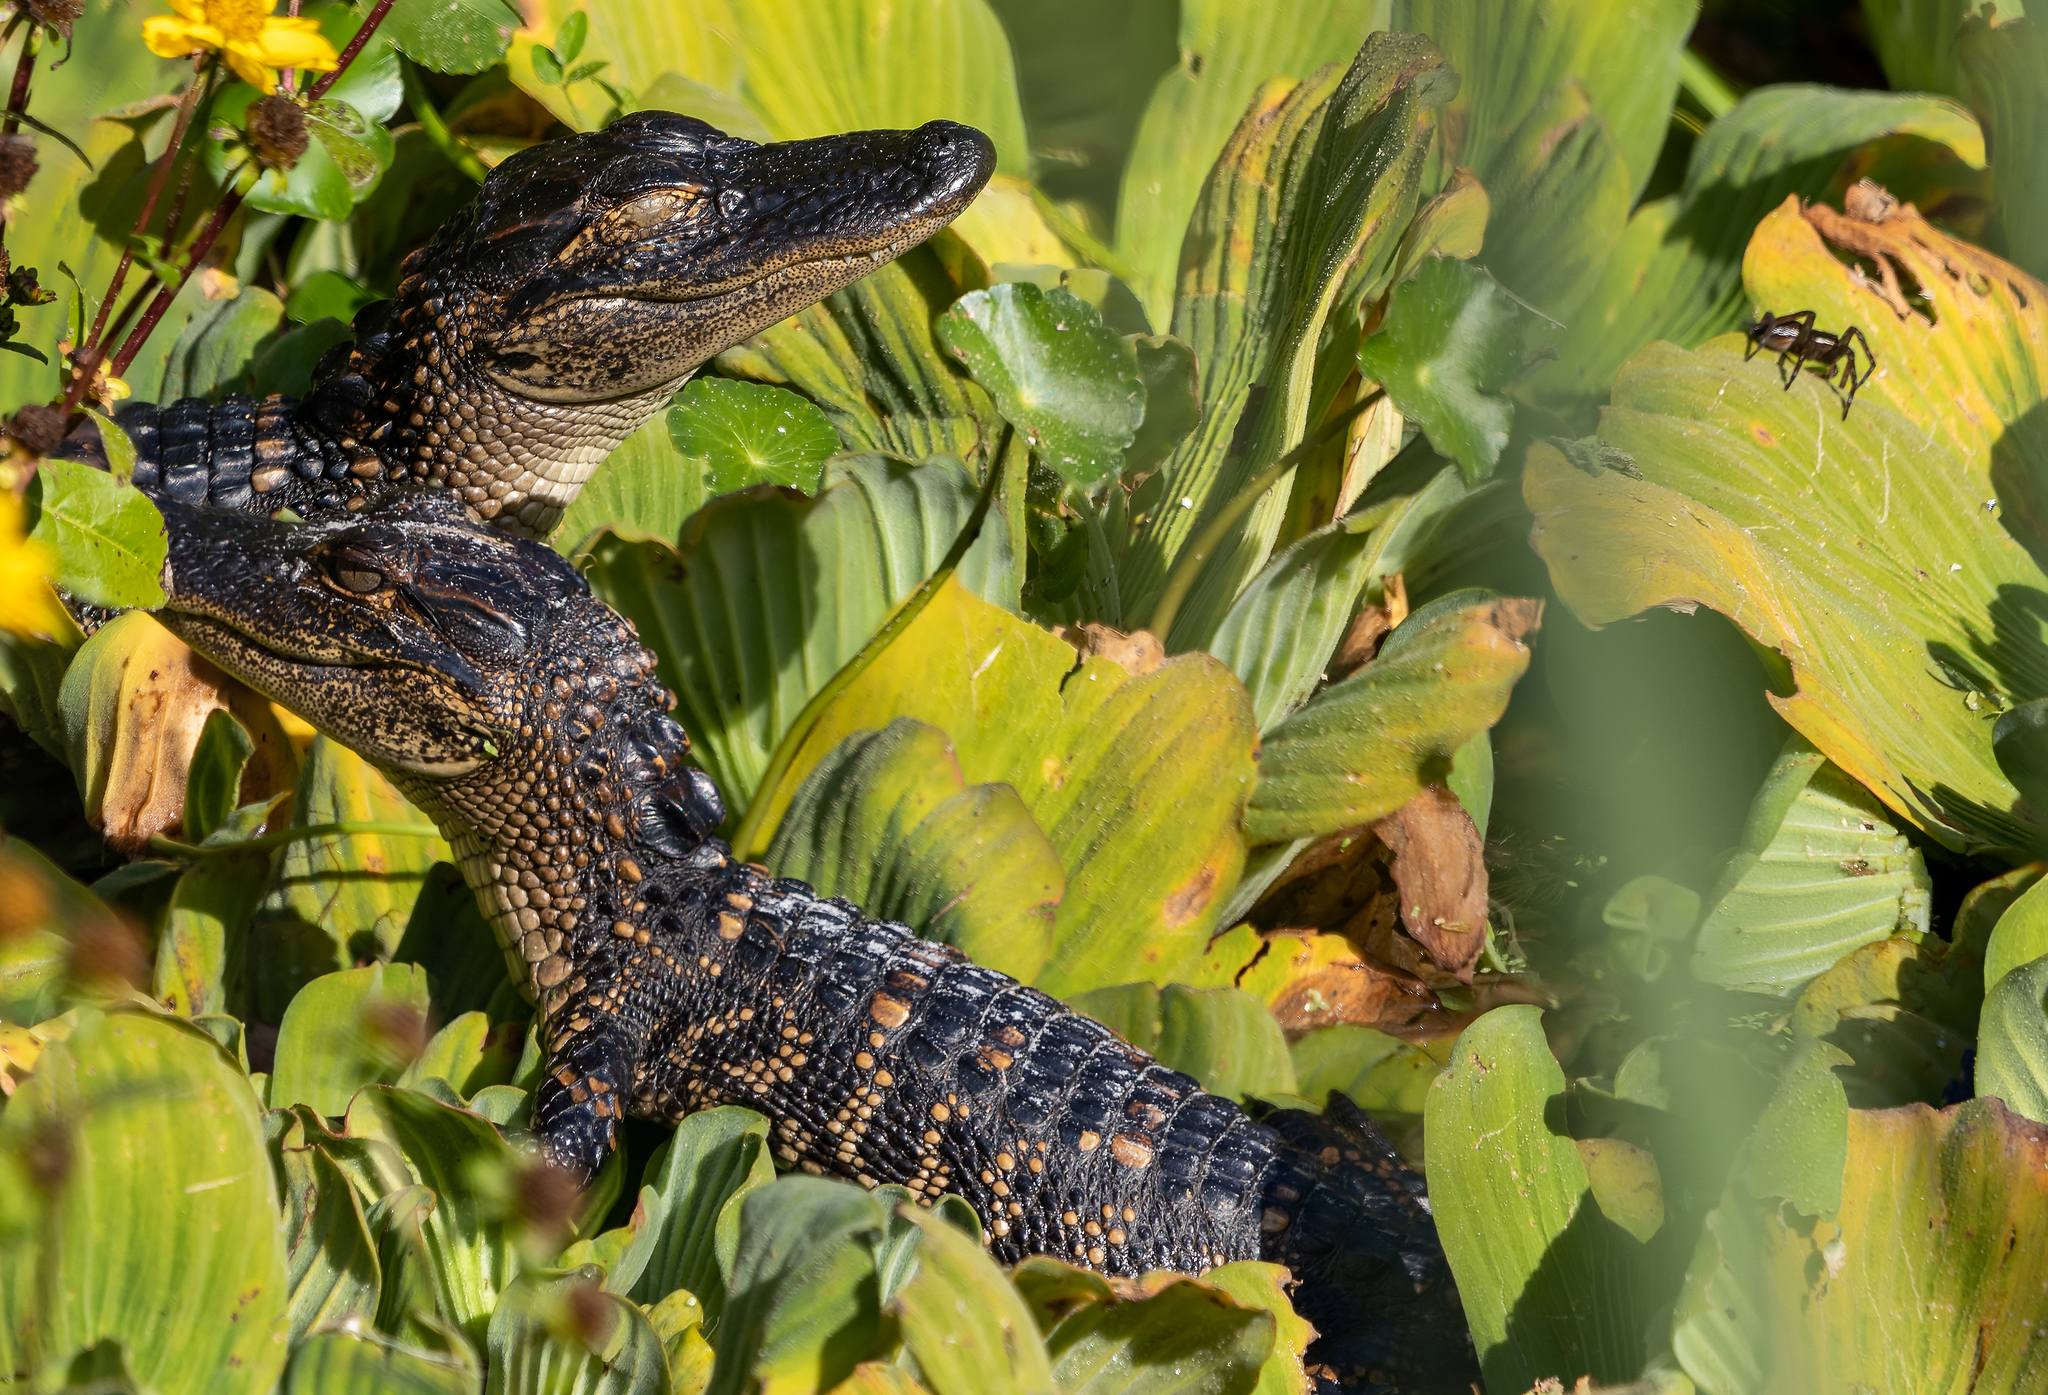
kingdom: Animalia
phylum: Chordata
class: Crocodylia
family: Alligatoridae
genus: Alligator
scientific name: Alligator mississippiensis
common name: American alligator
